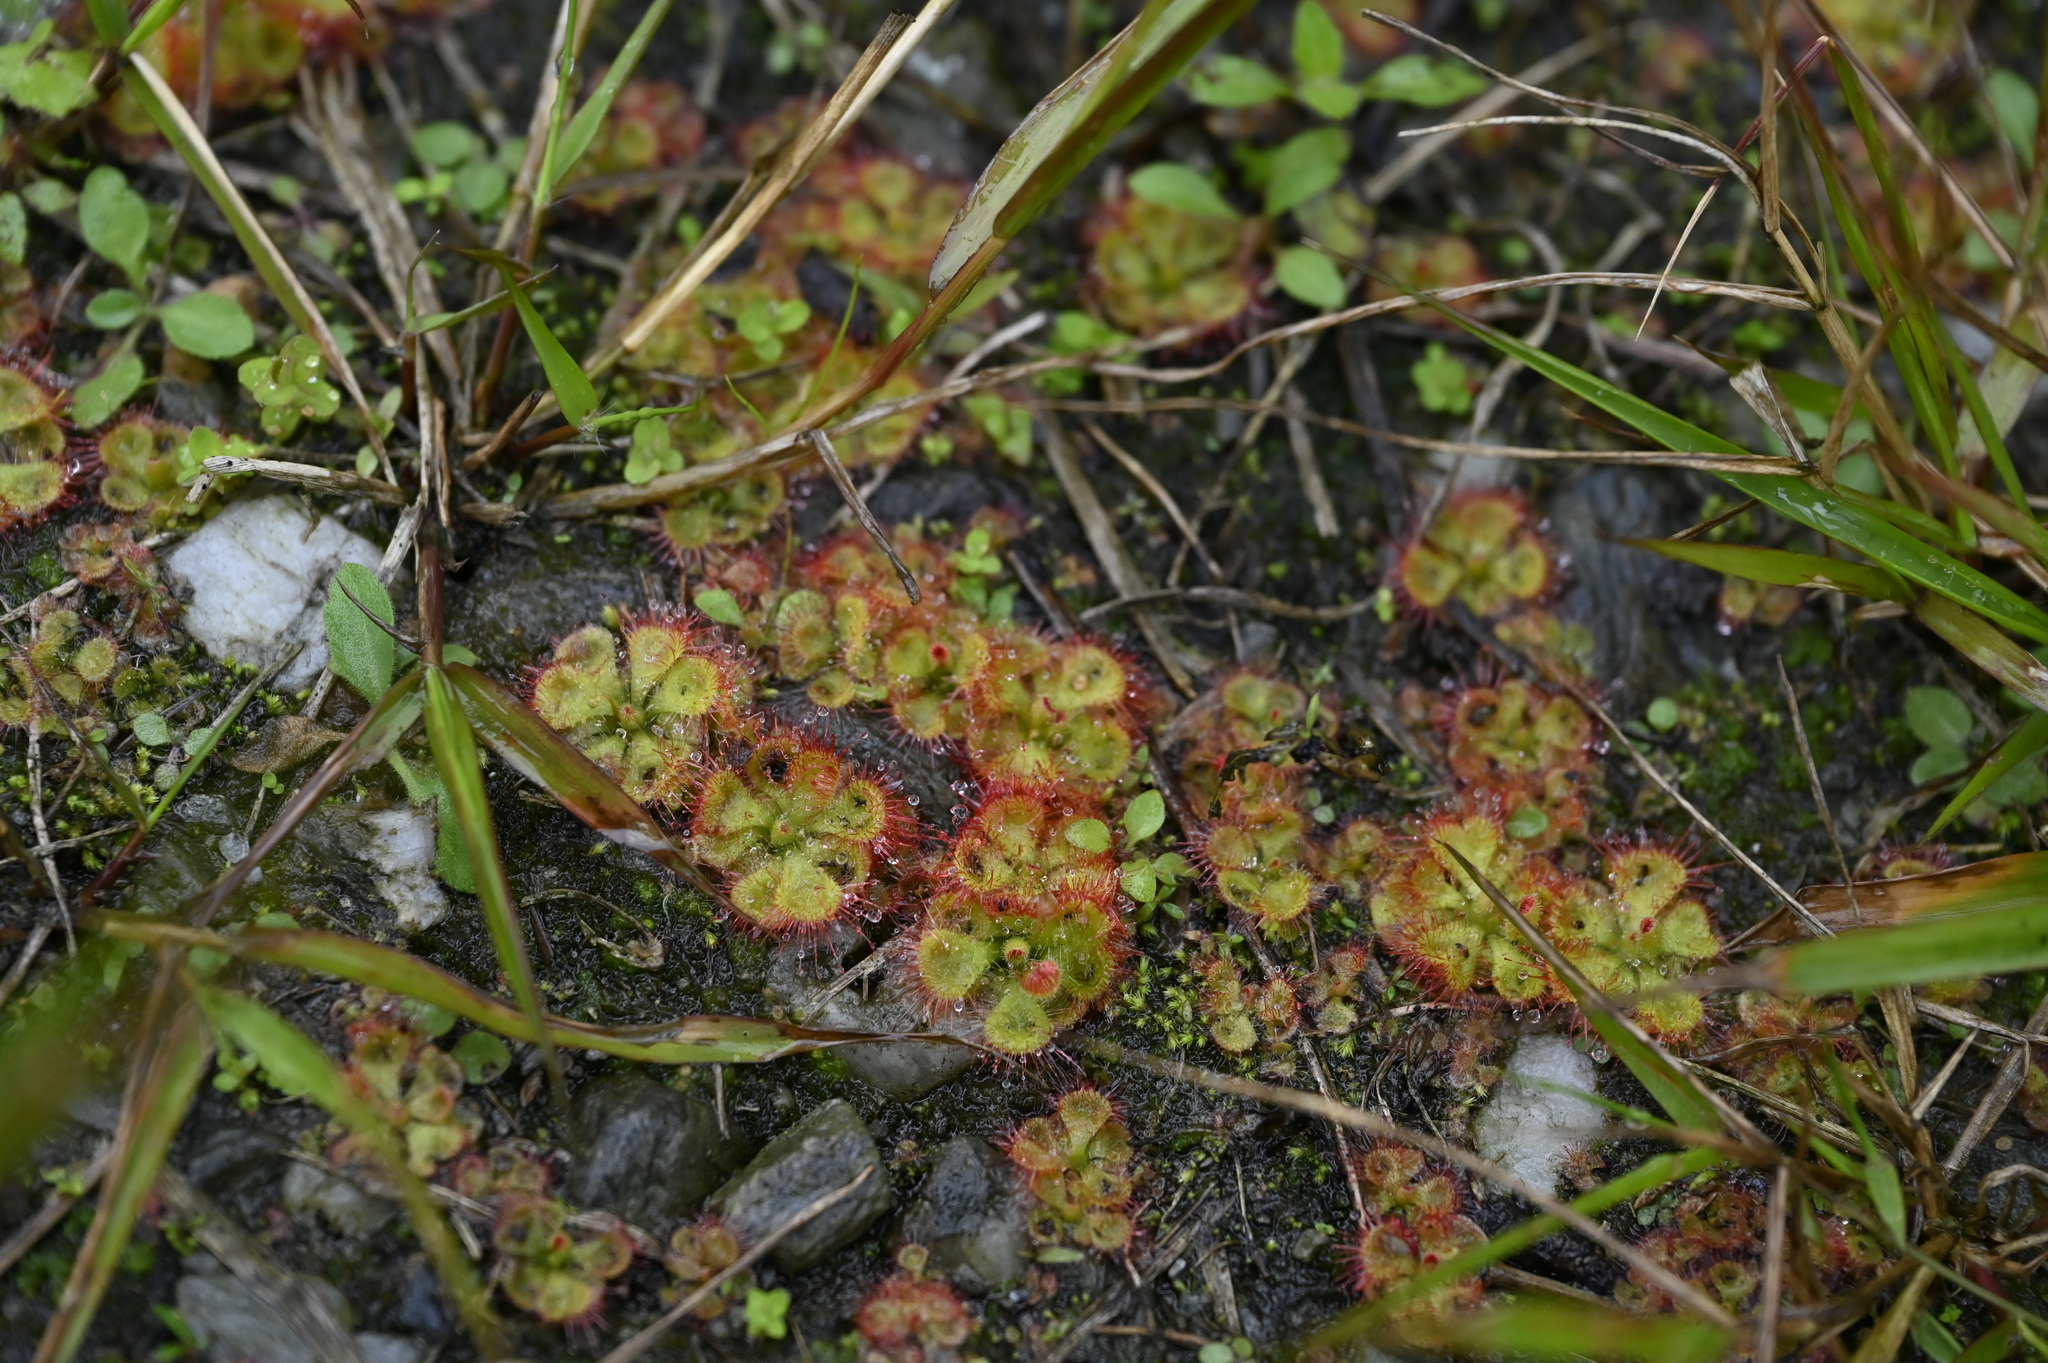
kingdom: Plantae
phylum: Tracheophyta
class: Magnoliopsida
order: Caryophyllales
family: Droseraceae
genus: Drosera
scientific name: Drosera spatulata
